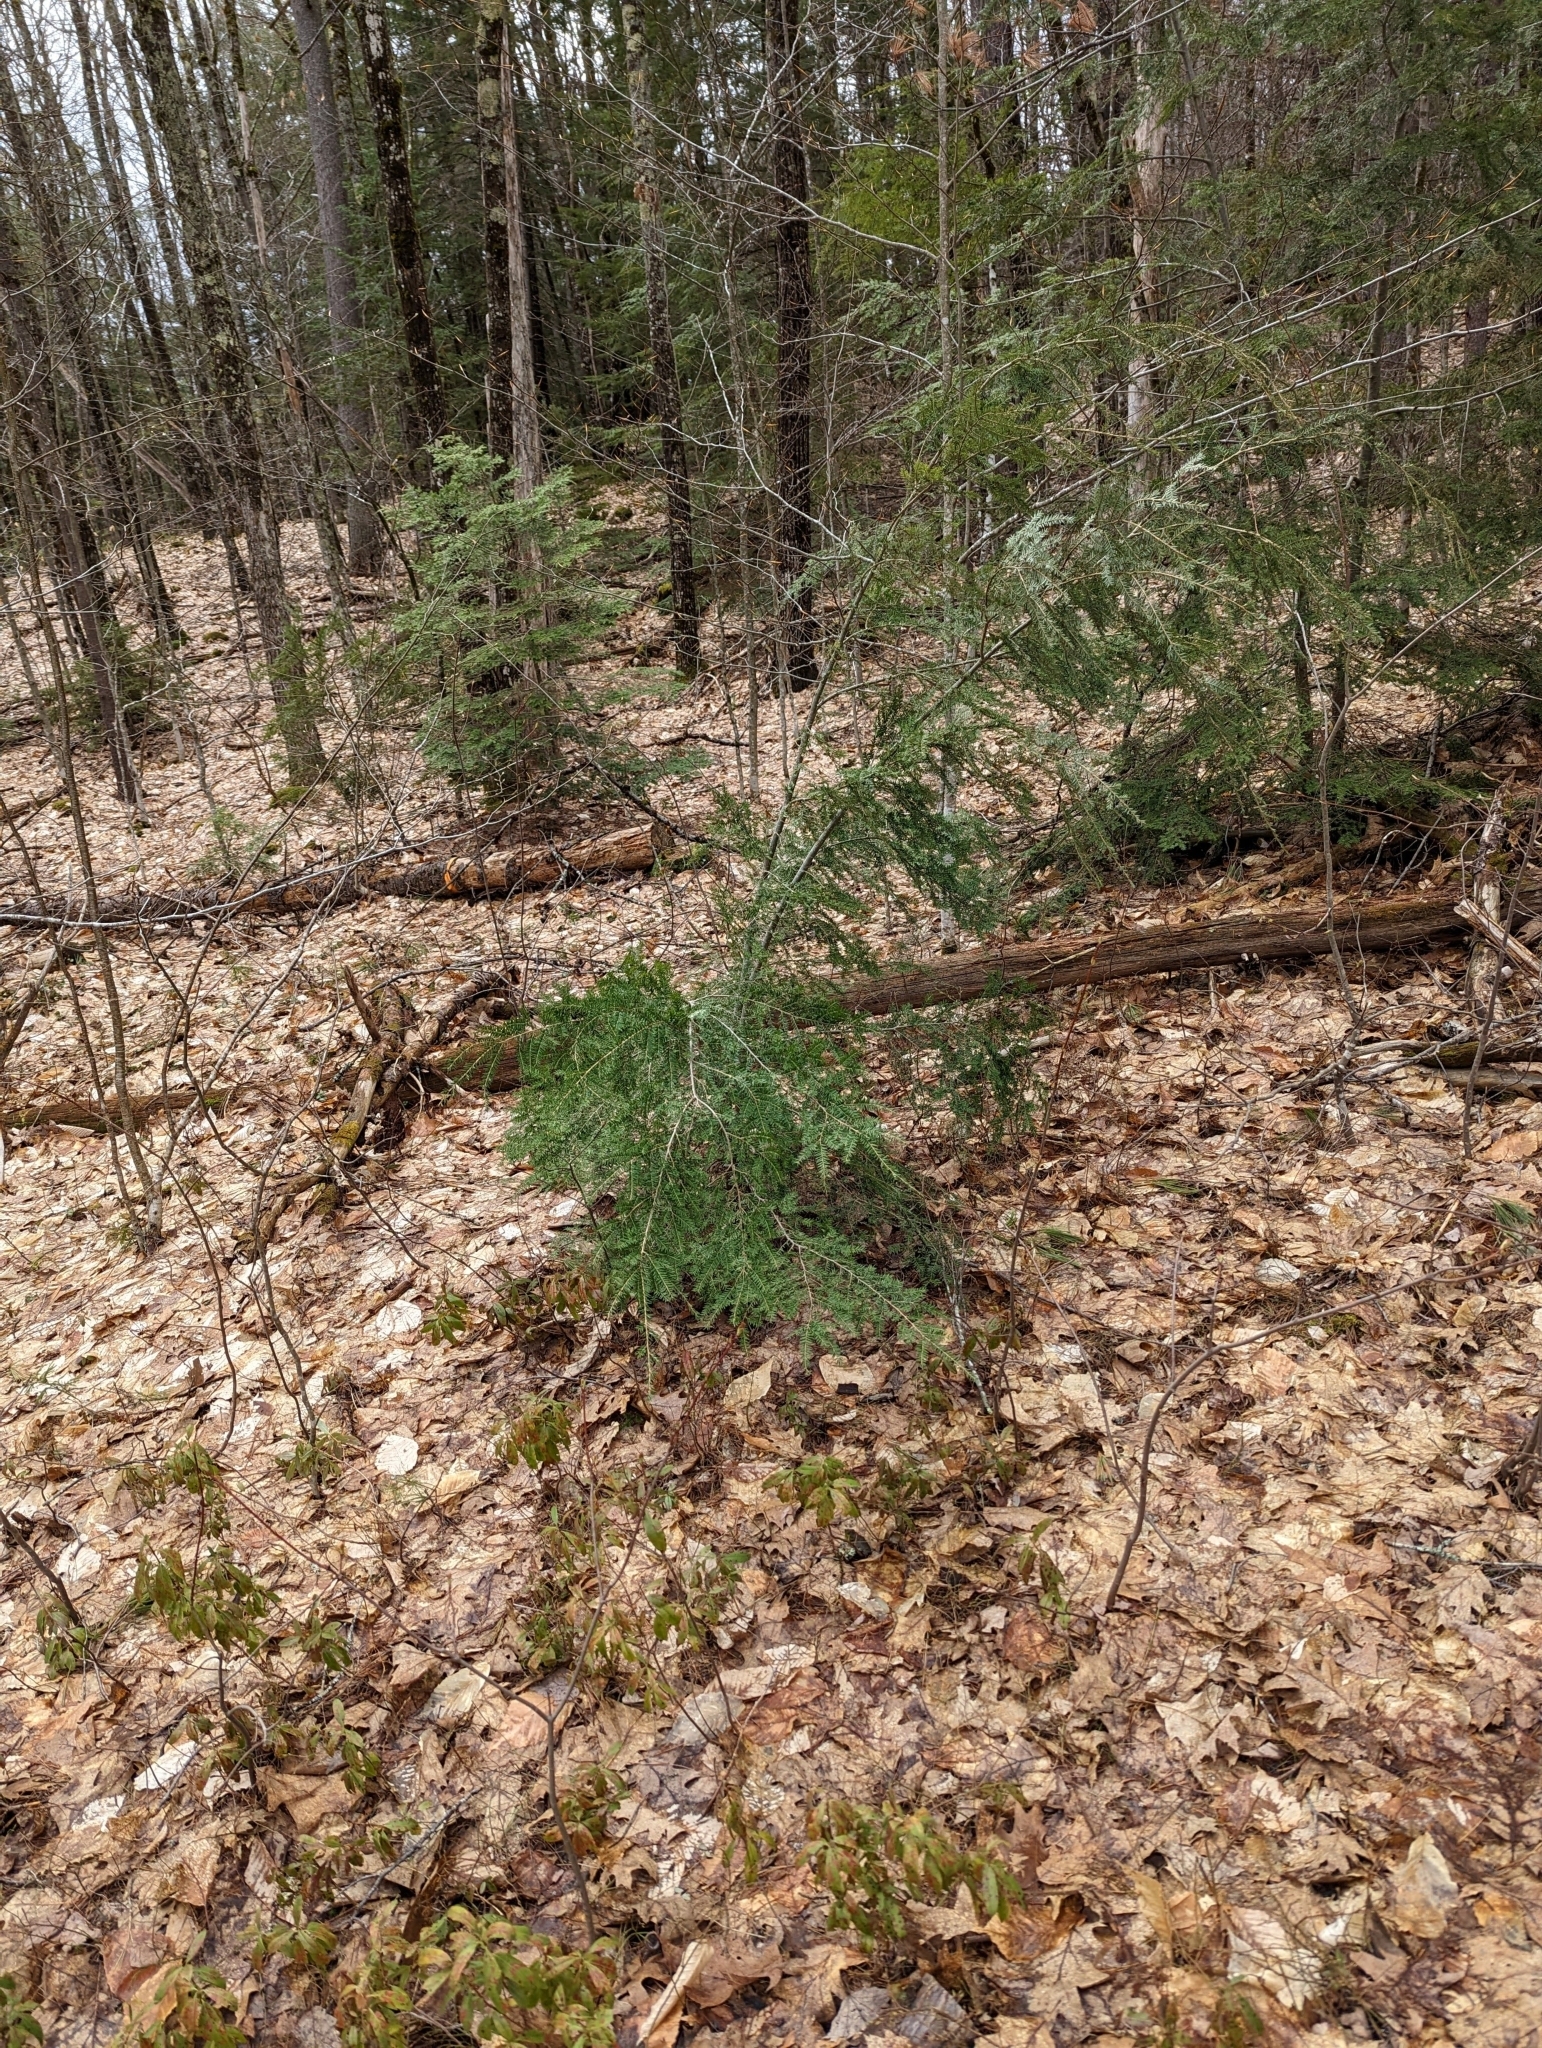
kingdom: Plantae
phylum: Tracheophyta
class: Pinopsida
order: Pinales
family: Pinaceae
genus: Tsuga
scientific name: Tsuga canadensis
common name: Eastern hemlock
